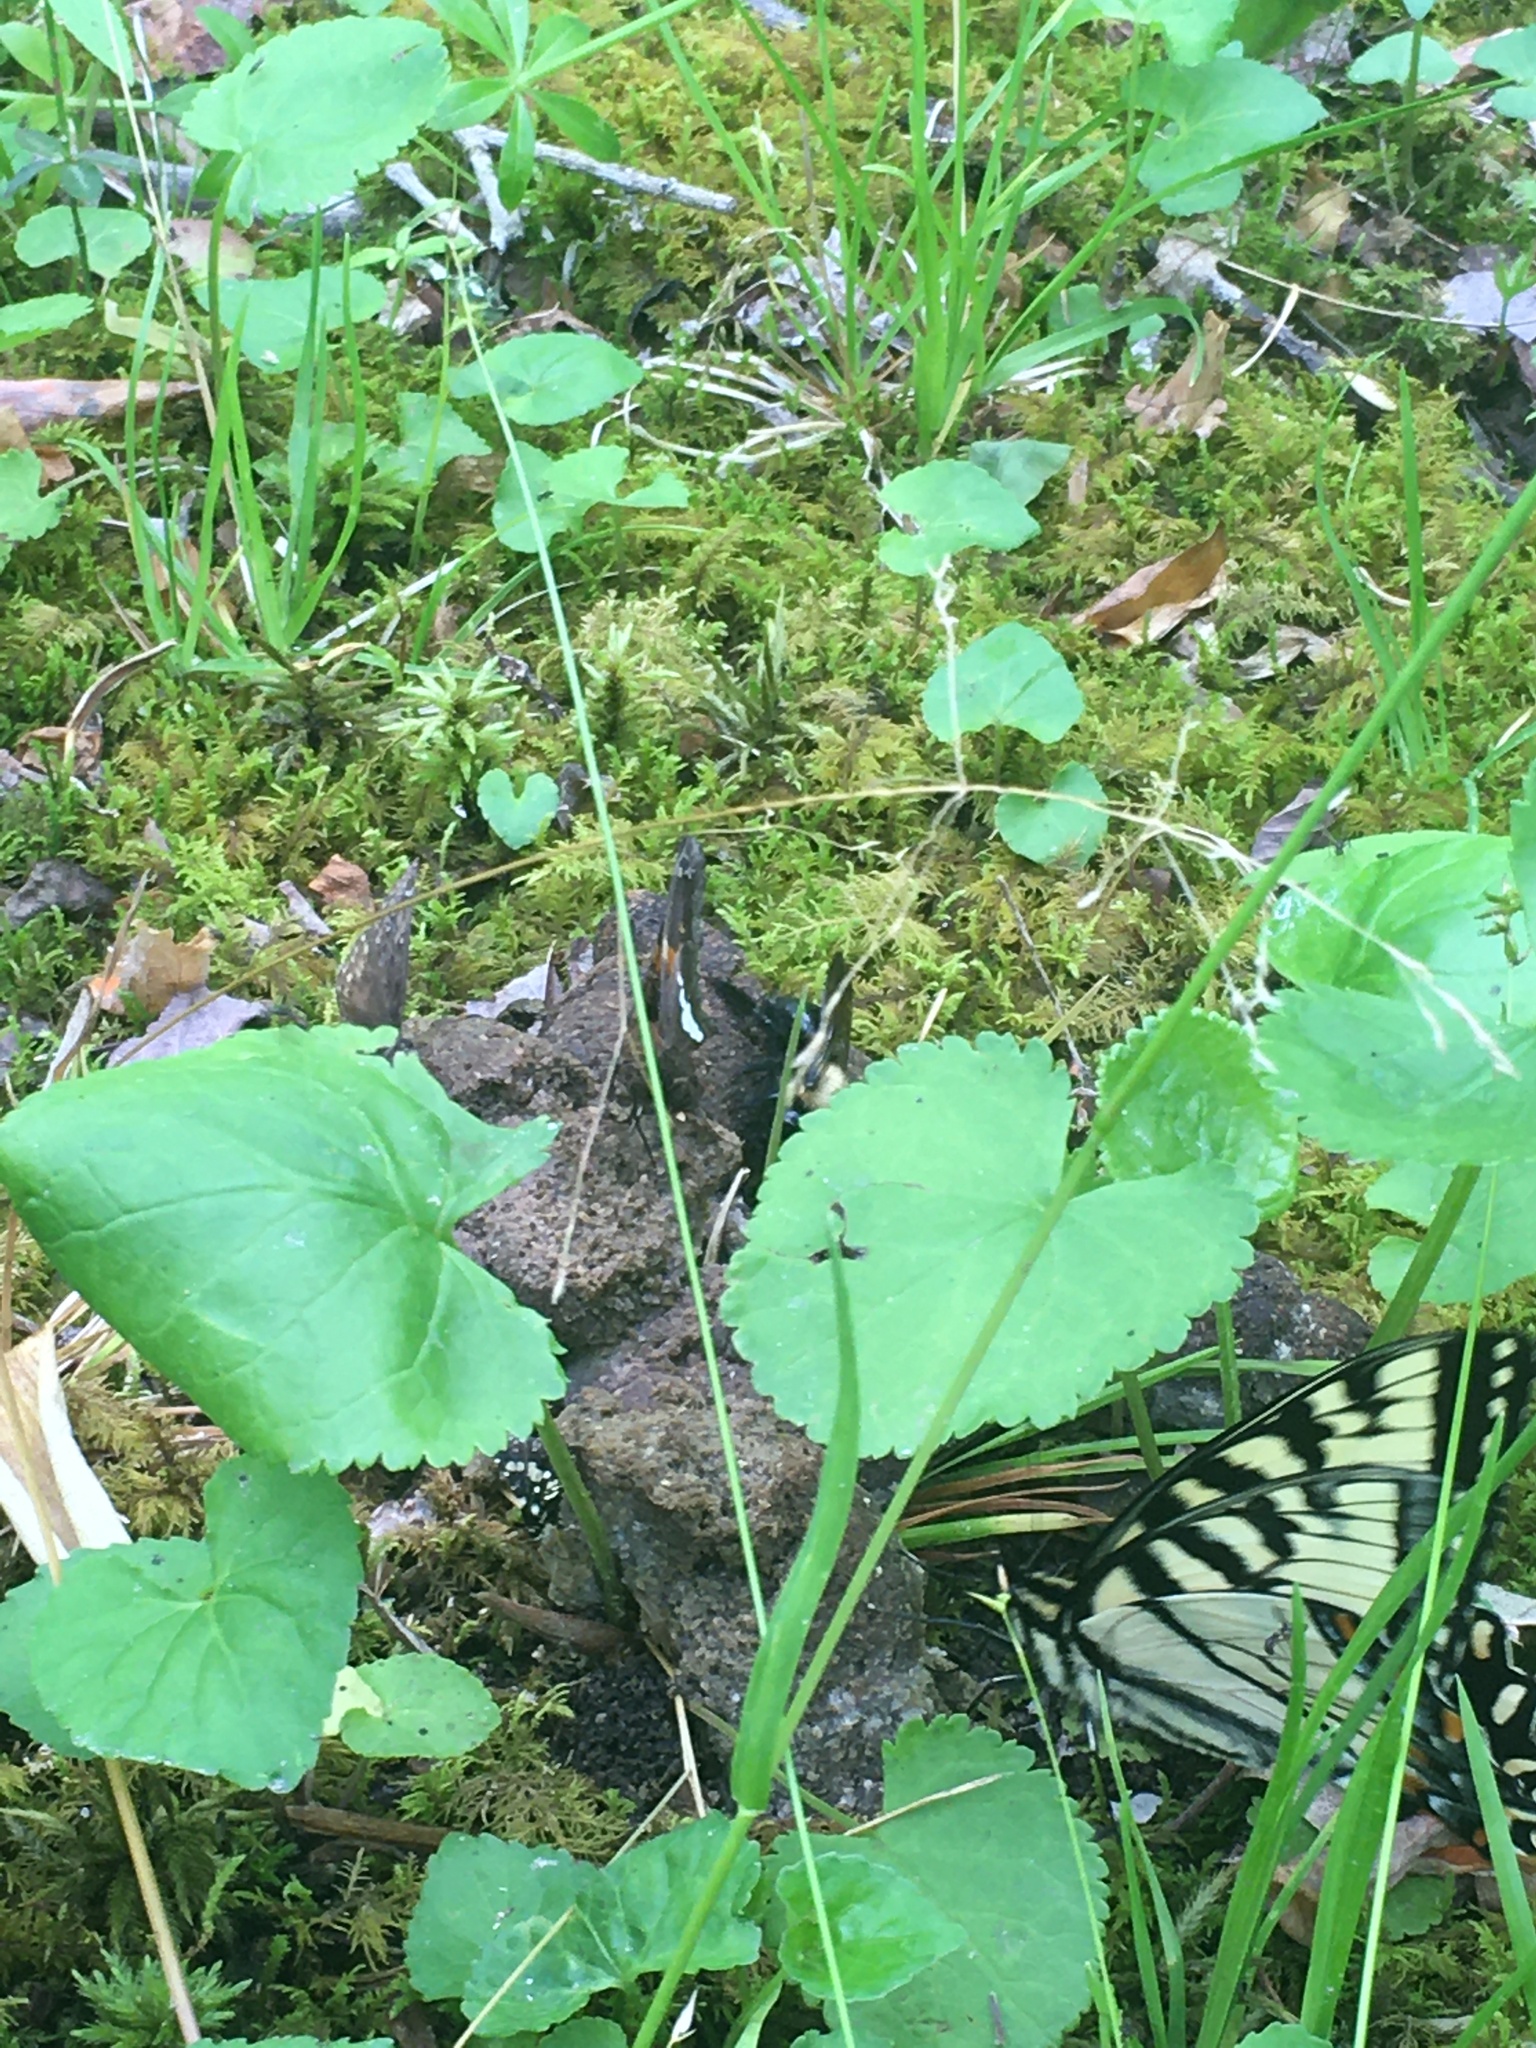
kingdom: Animalia
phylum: Arthropoda
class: Insecta
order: Lepidoptera
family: Hesperiidae
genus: Epargyreus
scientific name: Epargyreus clarus
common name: Silver-spotted skipper
